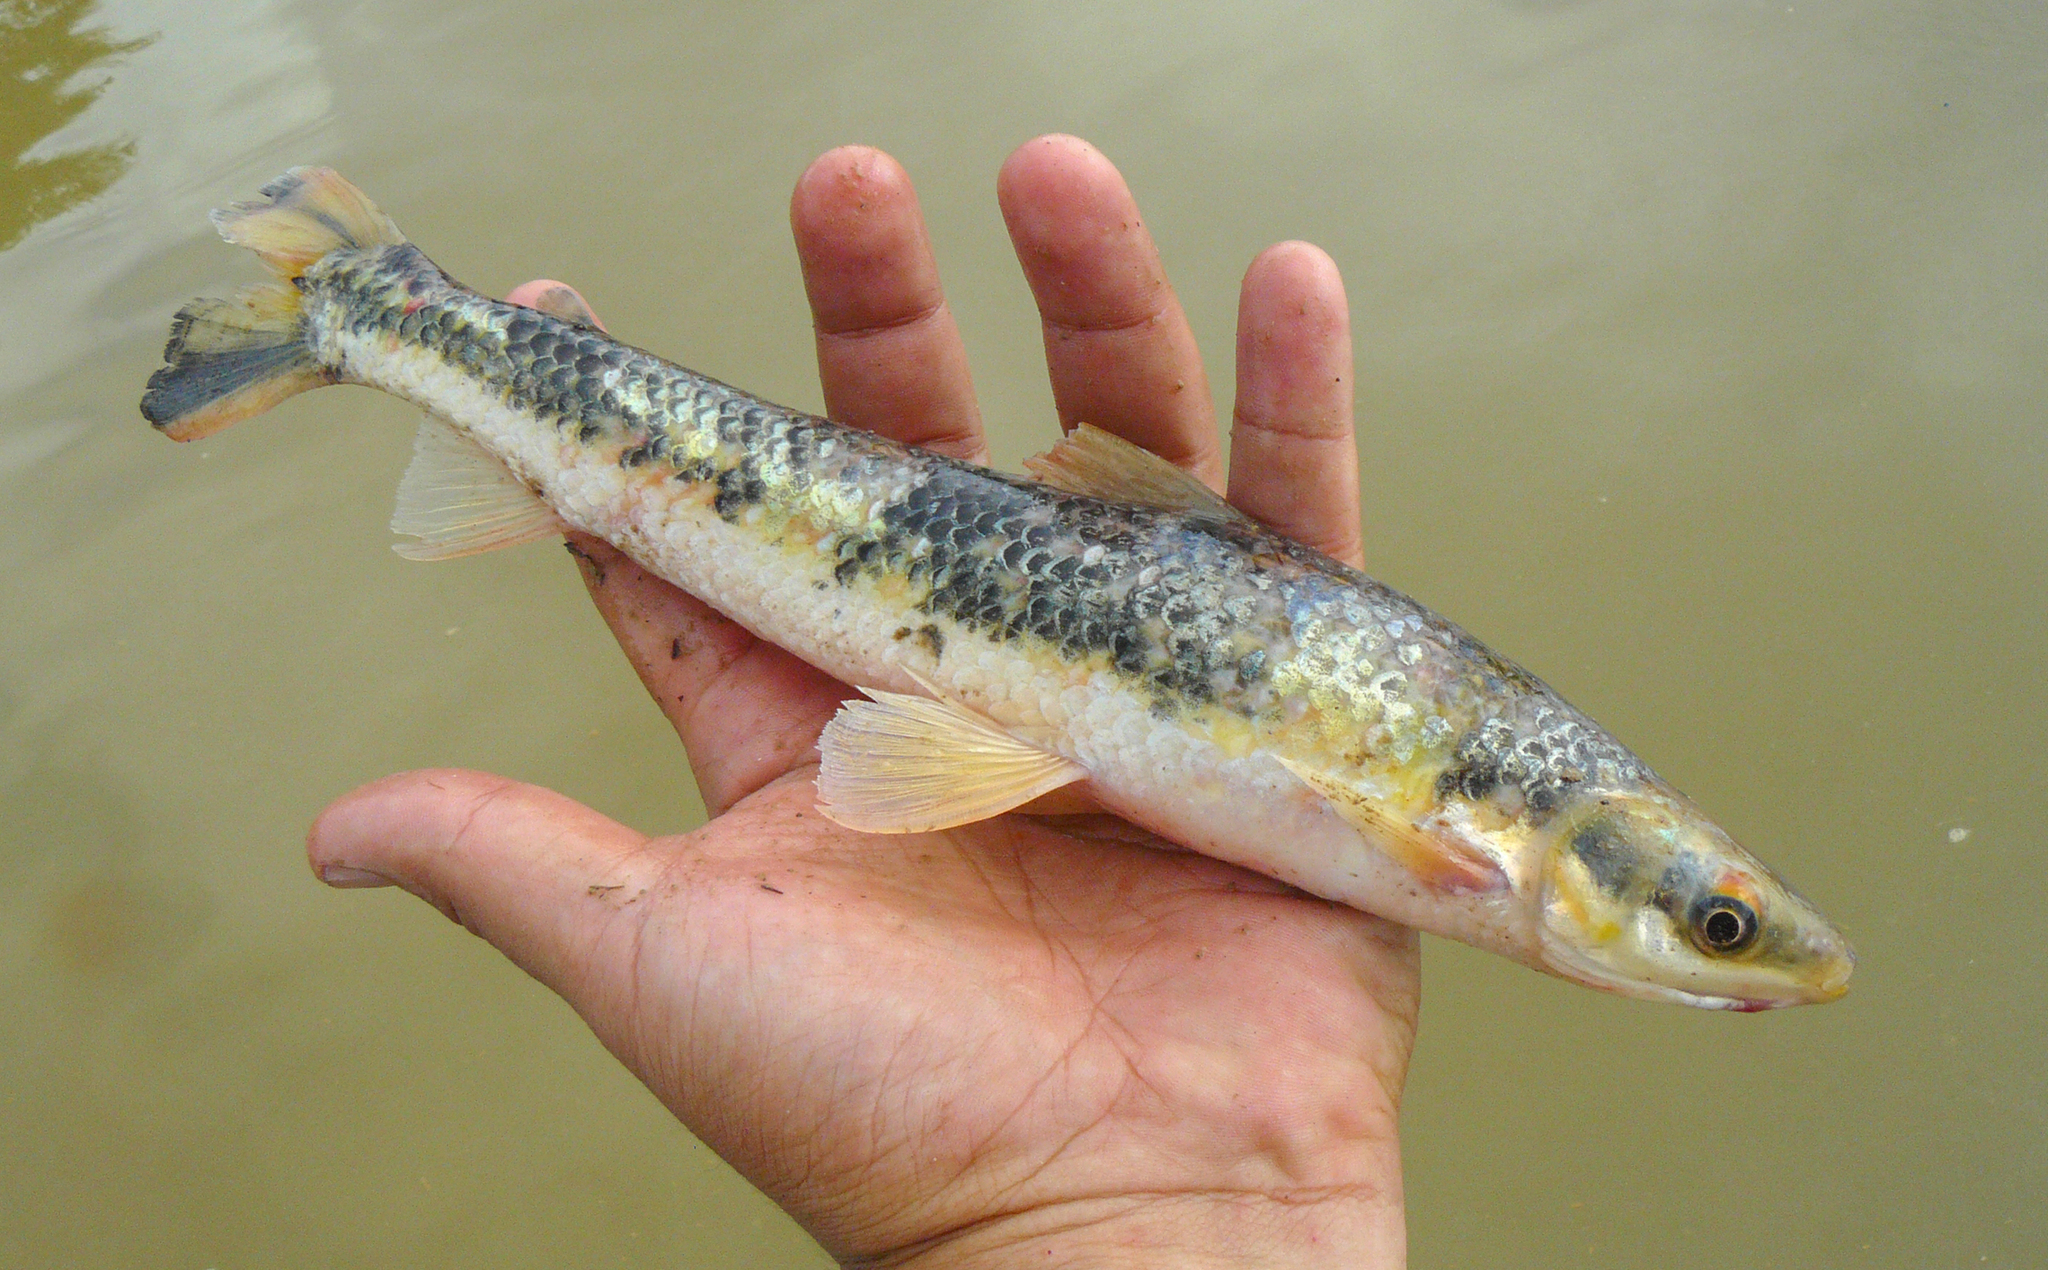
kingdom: Animalia
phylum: Chordata
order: Characiformes
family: Anostomidae
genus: Rhytiodus
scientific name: Rhytiodus argenteofuscus
